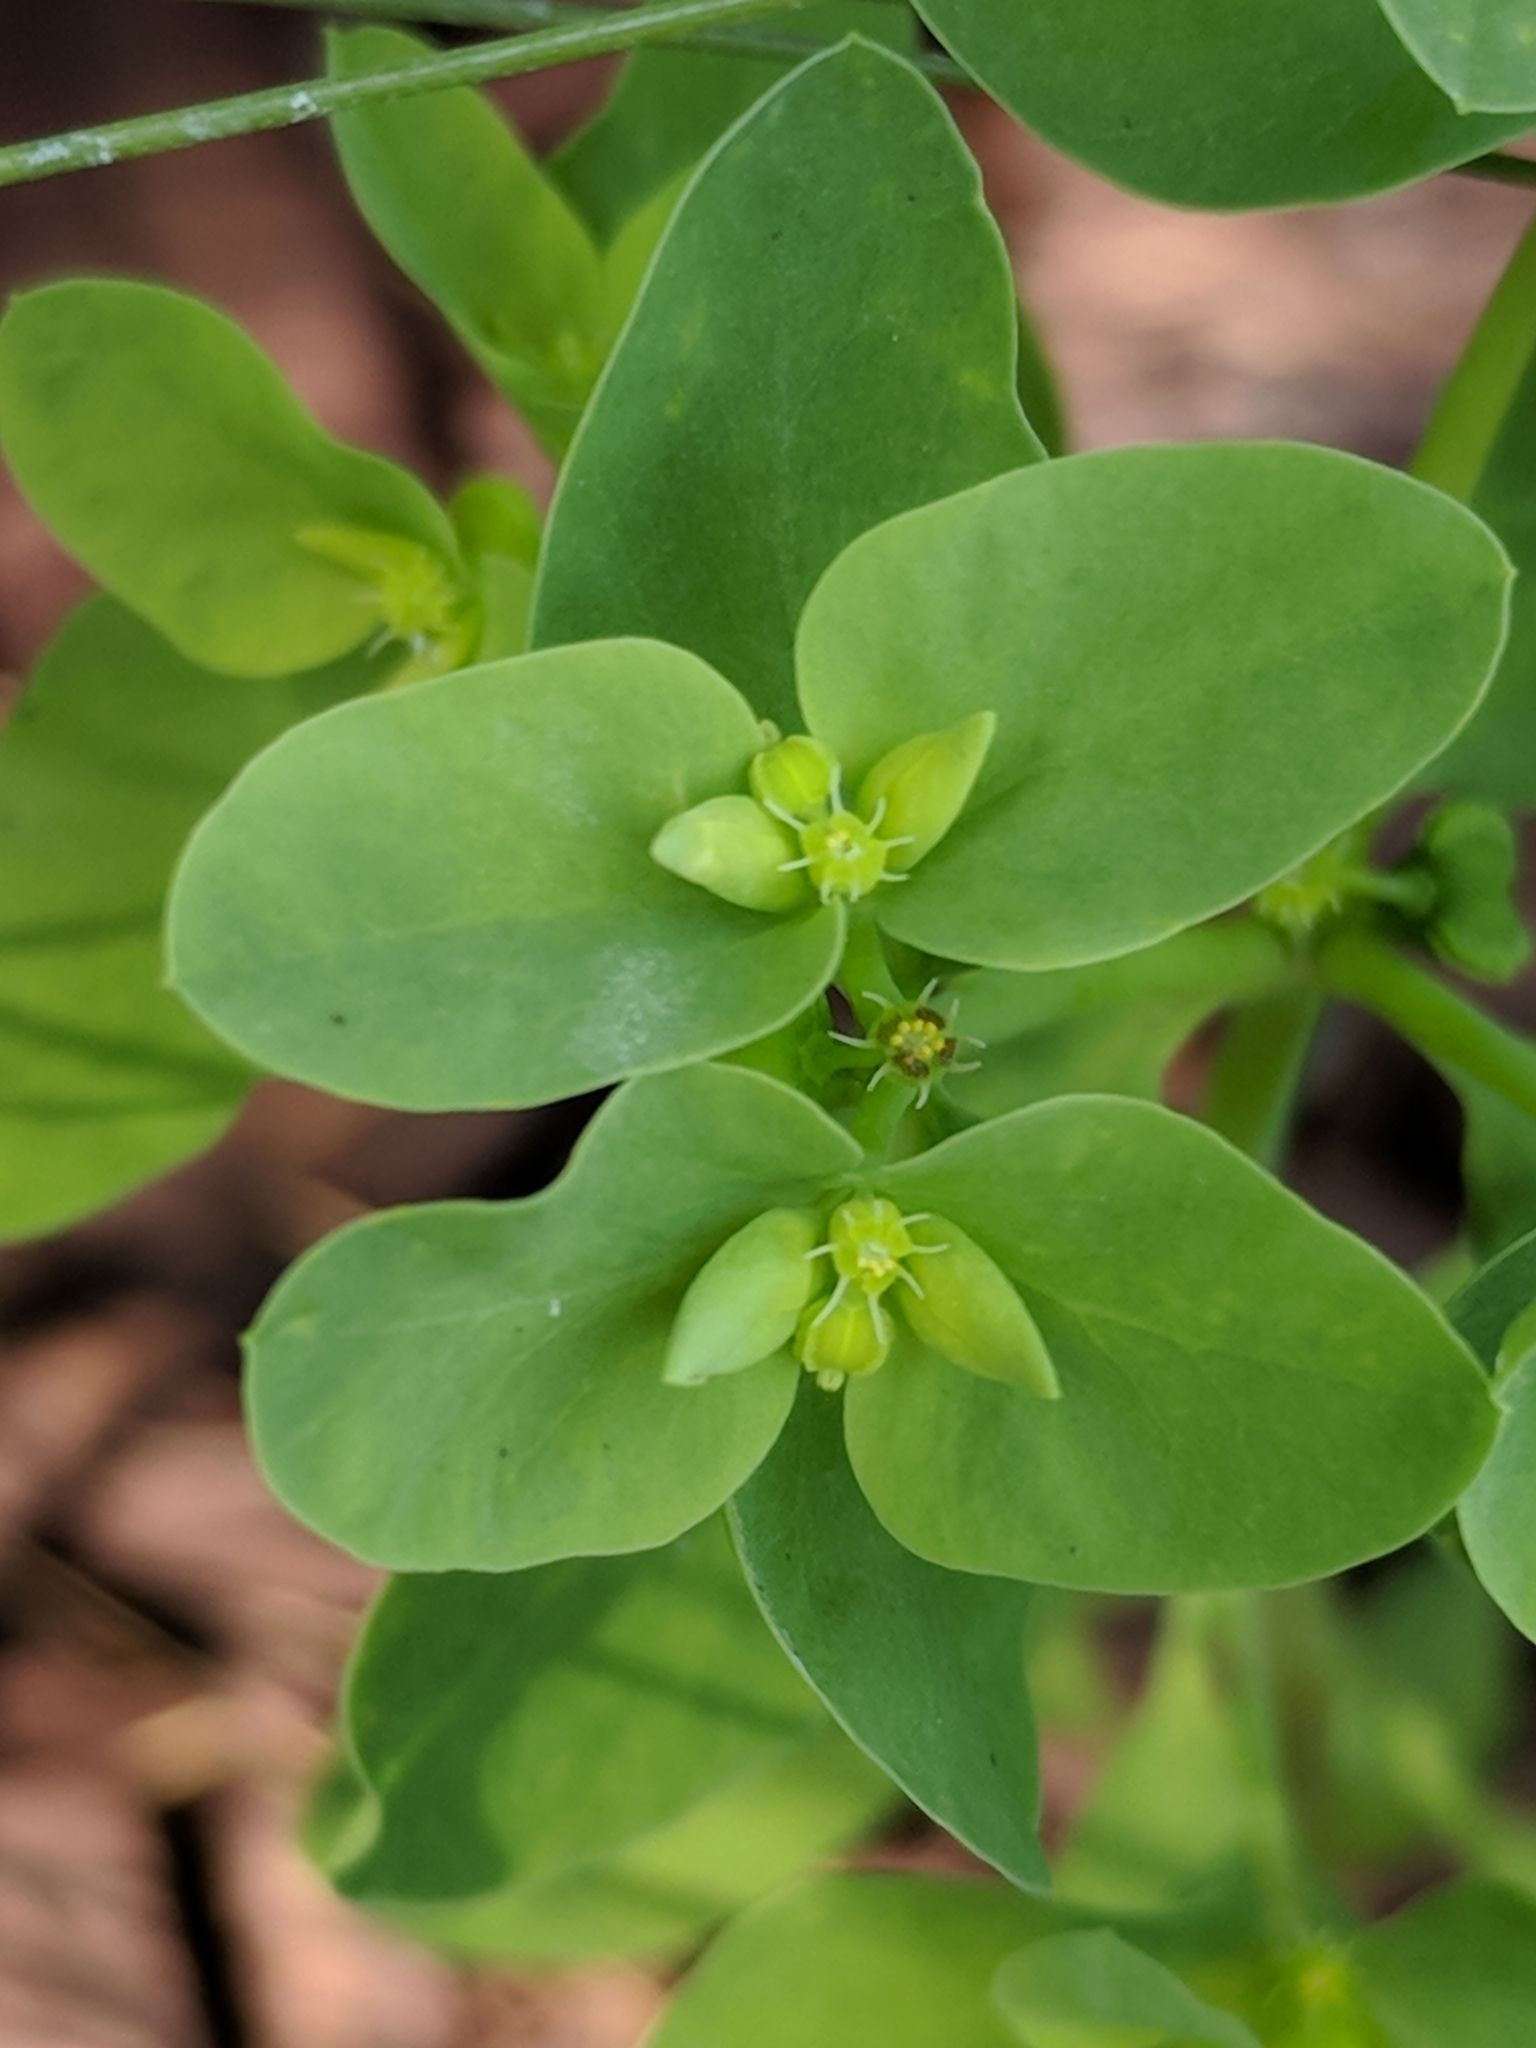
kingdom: Plantae
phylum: Tracheophyta
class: Magnoliopsida
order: Malpighiales
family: Euphorbiaceae
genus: Euphorbia
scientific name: Euphorbia peplus
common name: Petty spurge
